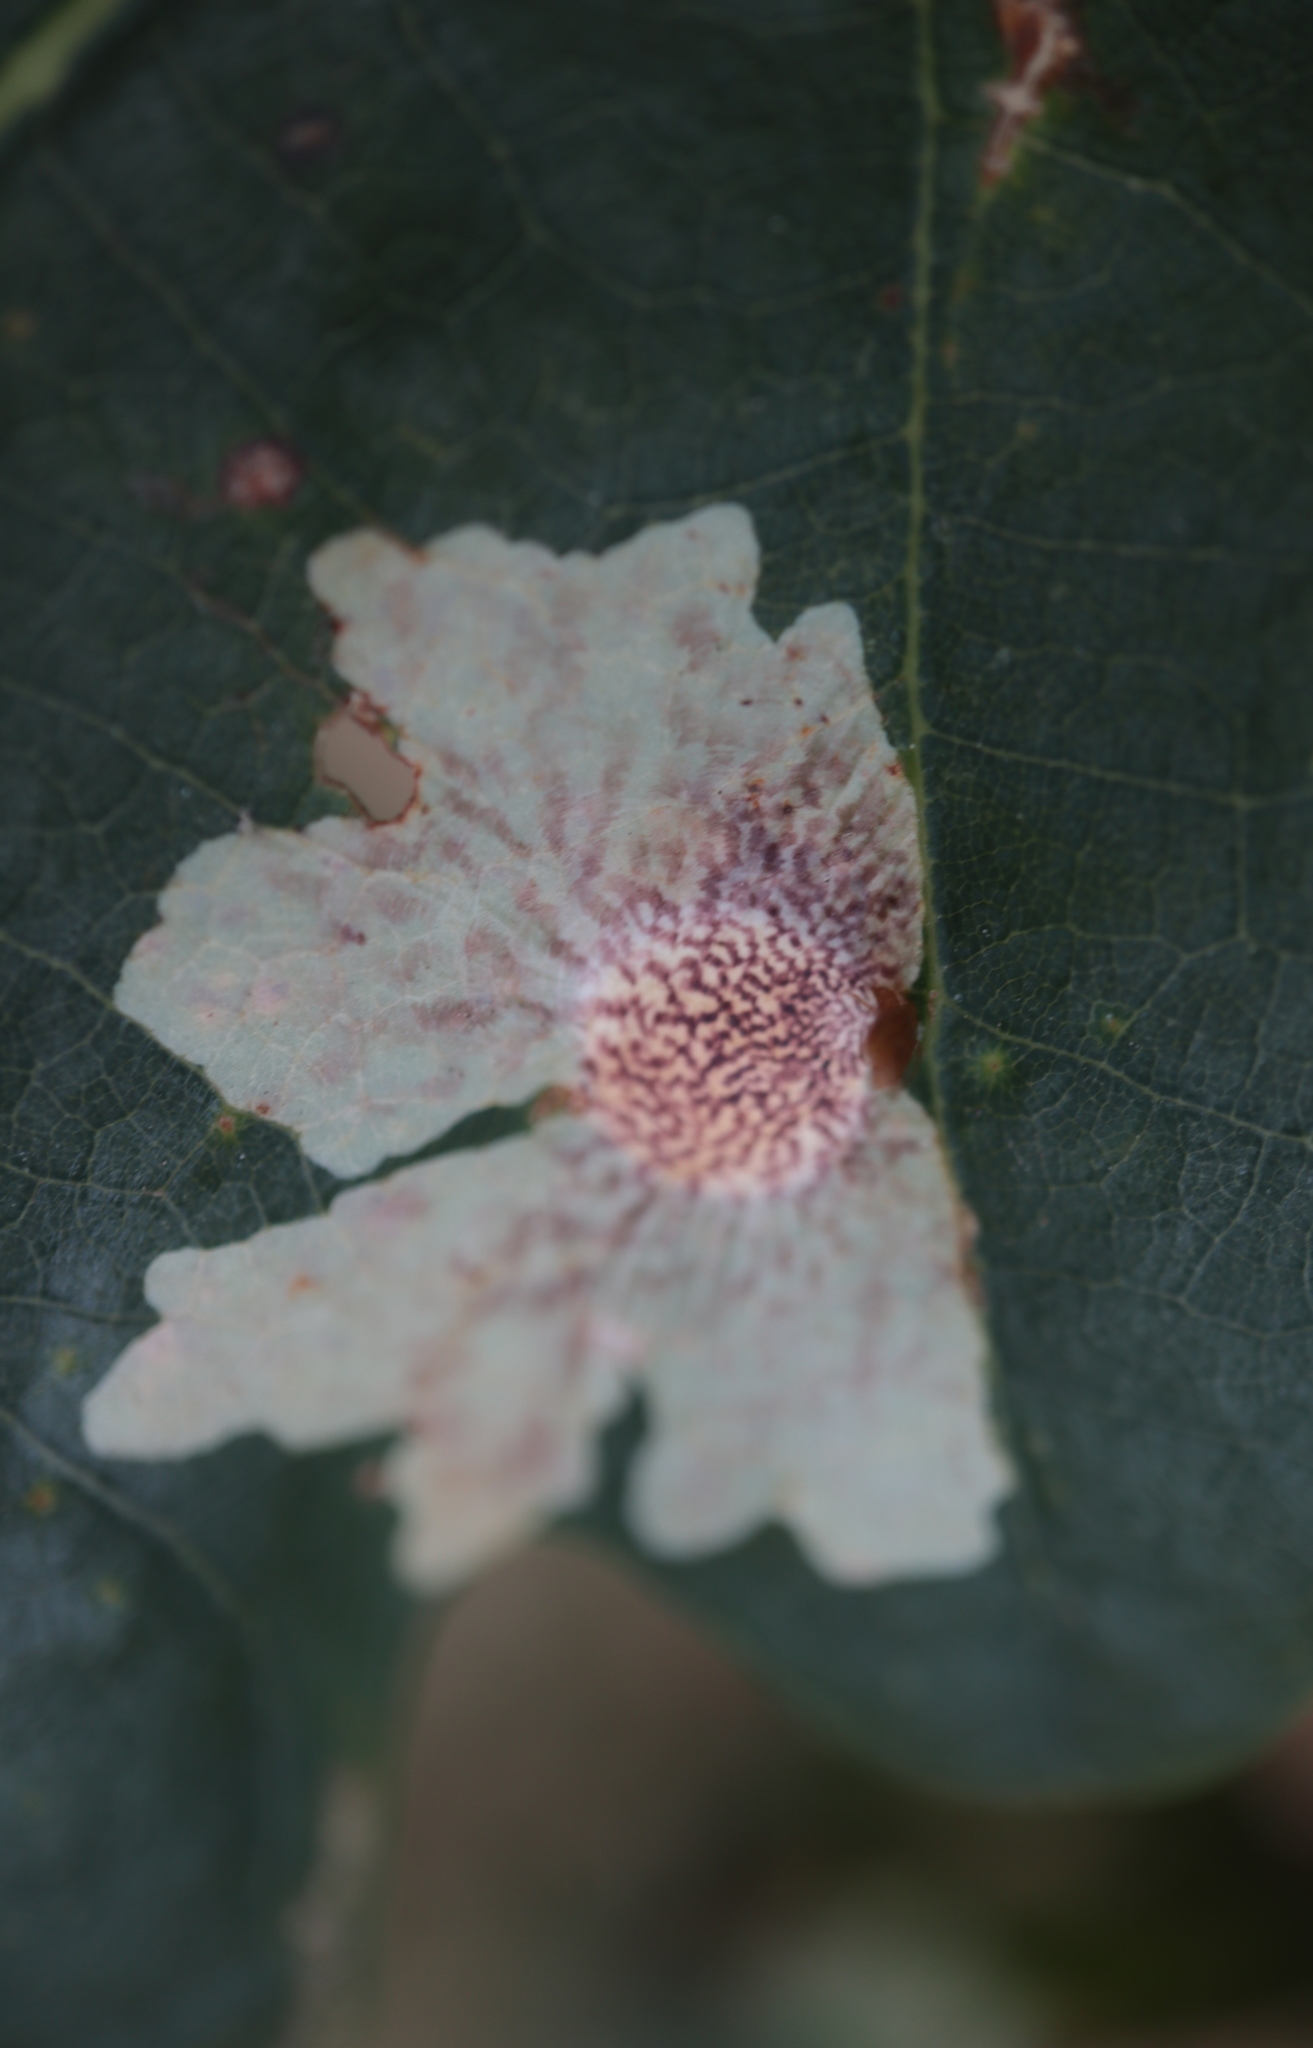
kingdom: Animalia
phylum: Arthropoda
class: Insecta
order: Lepidoptera
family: Tischeriidae
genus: Tischeria
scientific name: Tischeria quercitella
